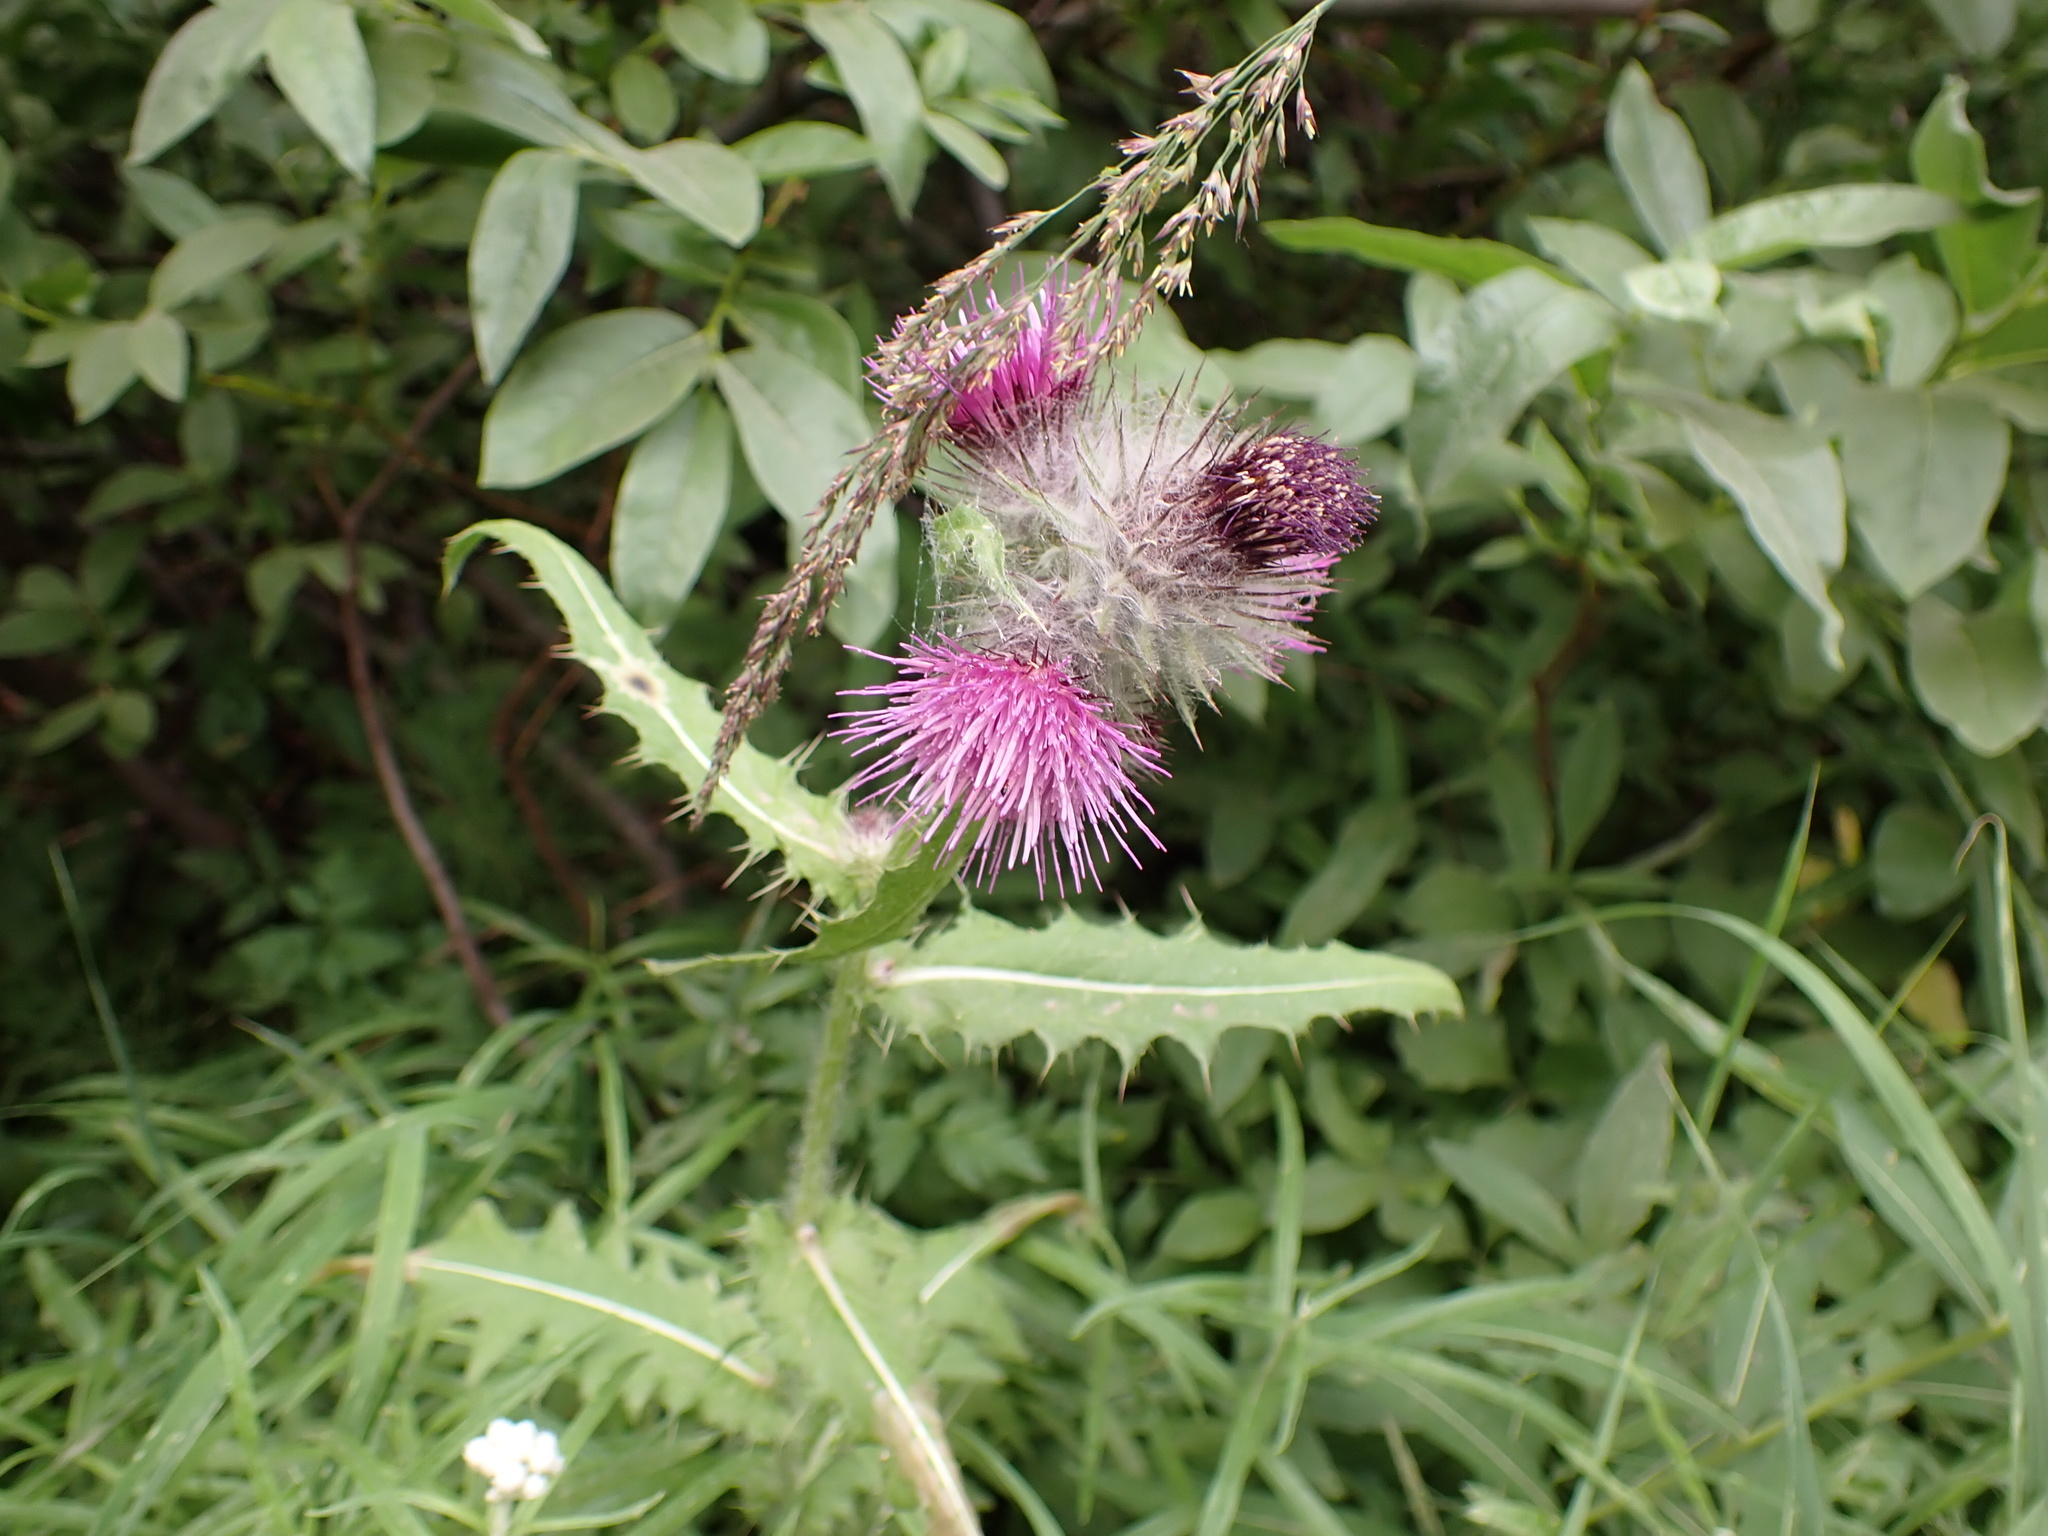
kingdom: Plantae
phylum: Tracheophyta
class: Magnoliopsida
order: Asterales
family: Asteraceae
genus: Cirsium
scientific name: Cirsium edule
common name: Indian thistle
